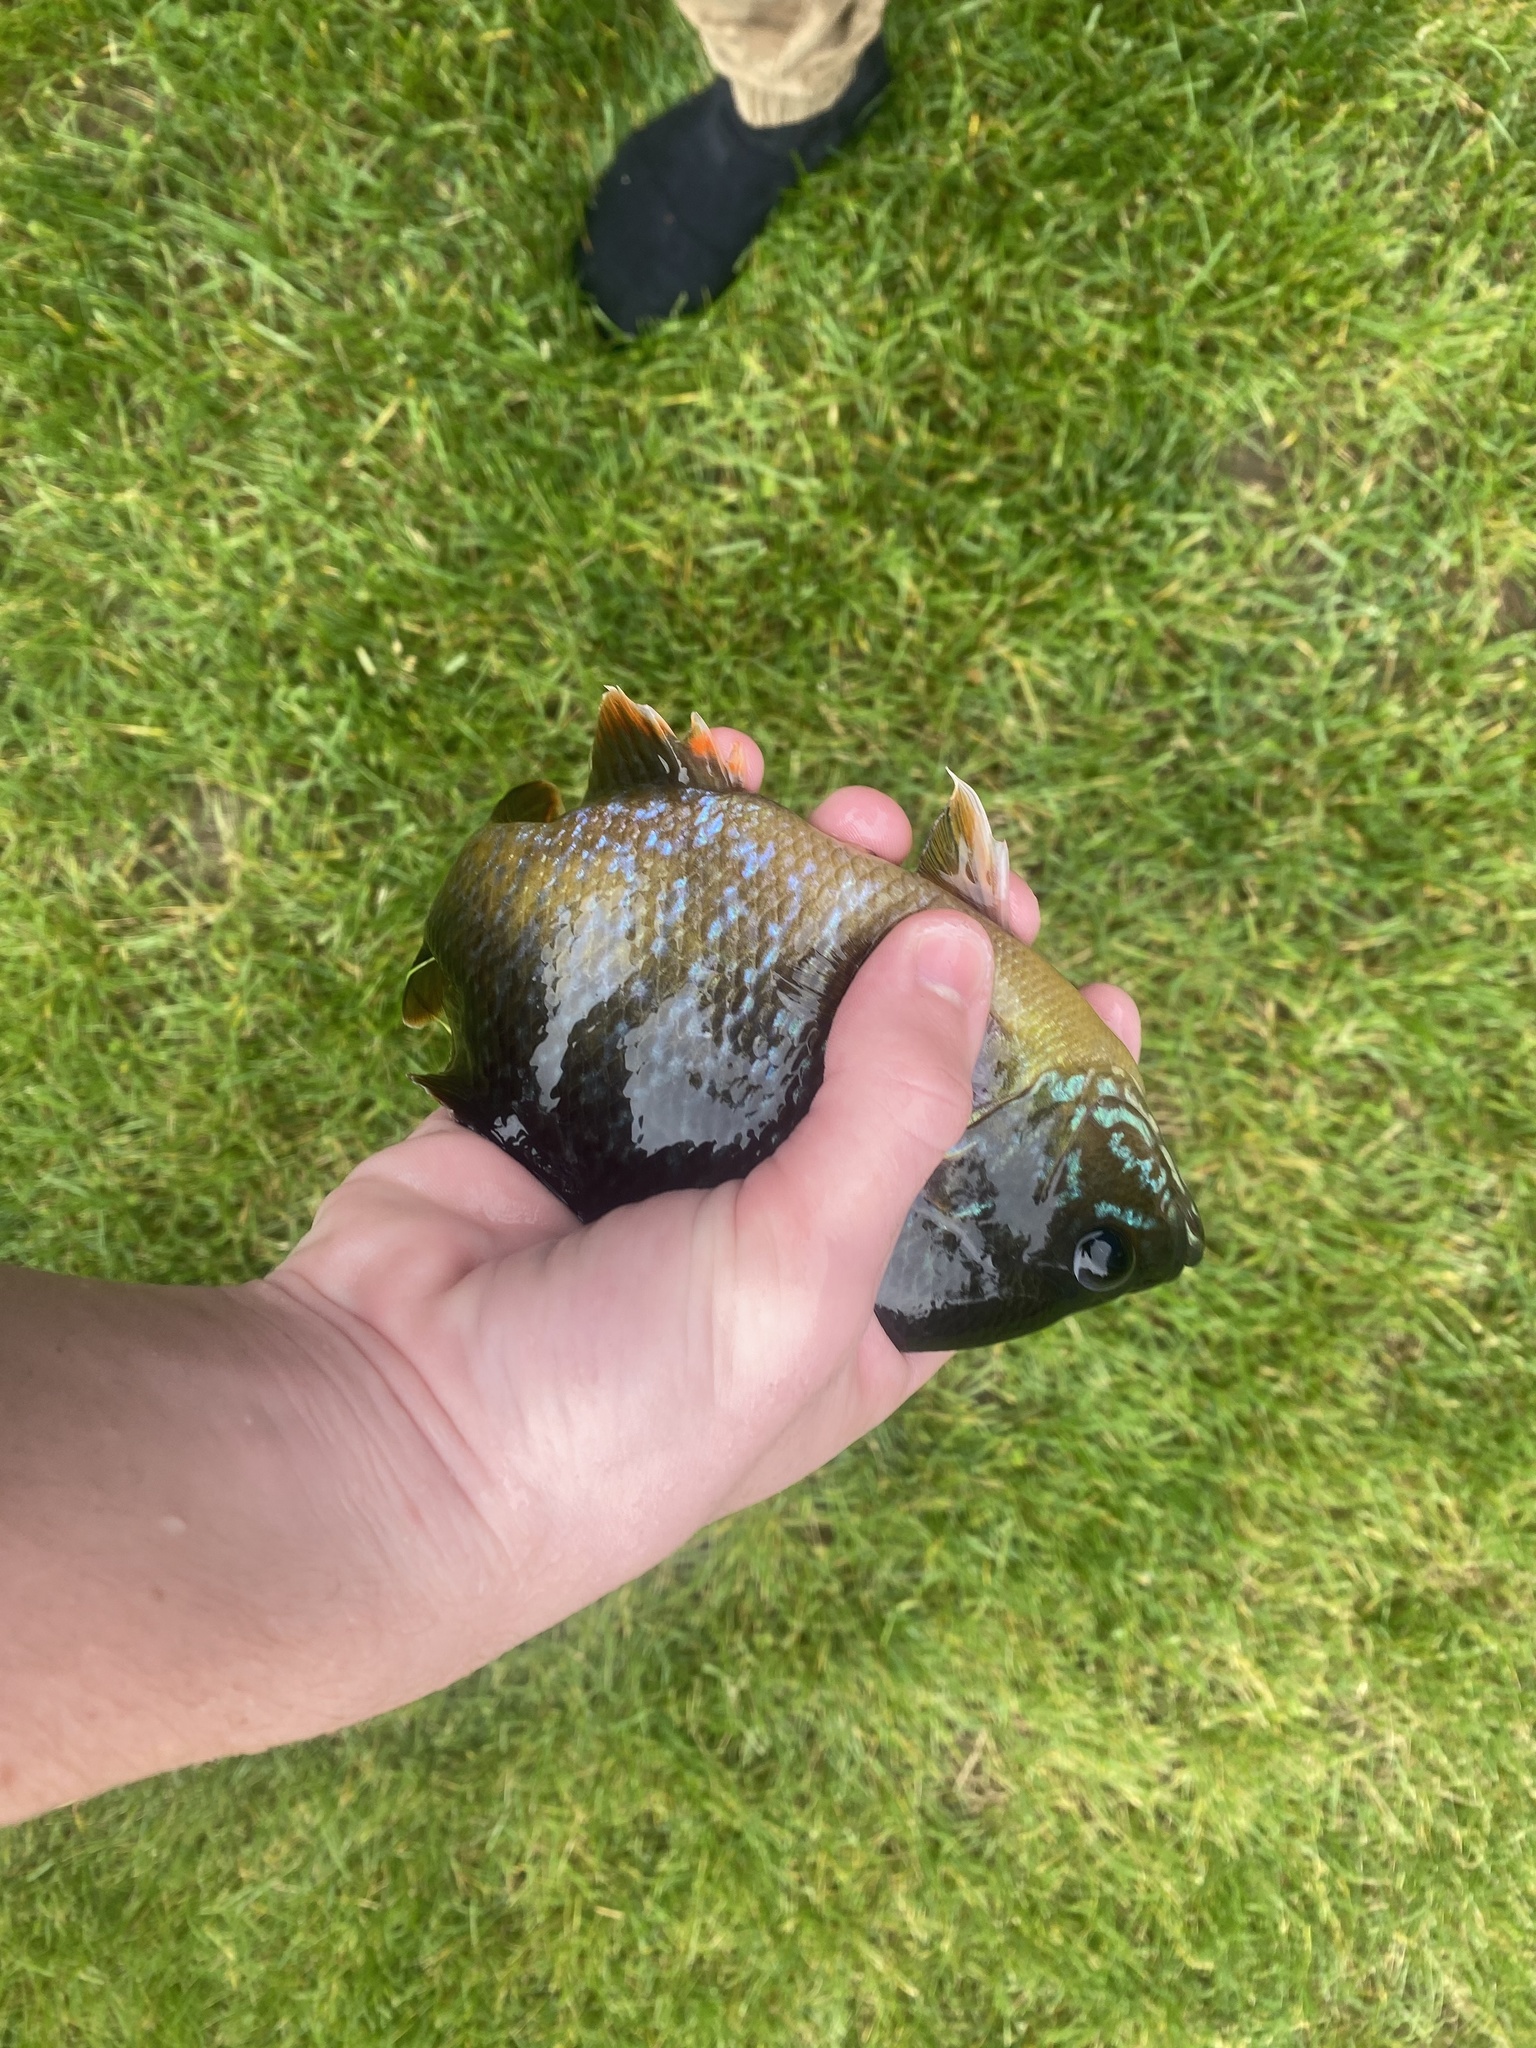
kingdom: Animalia
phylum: Chordata
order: Perciformes
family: Centrarchidae
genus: Lepomis
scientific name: Lepomis
